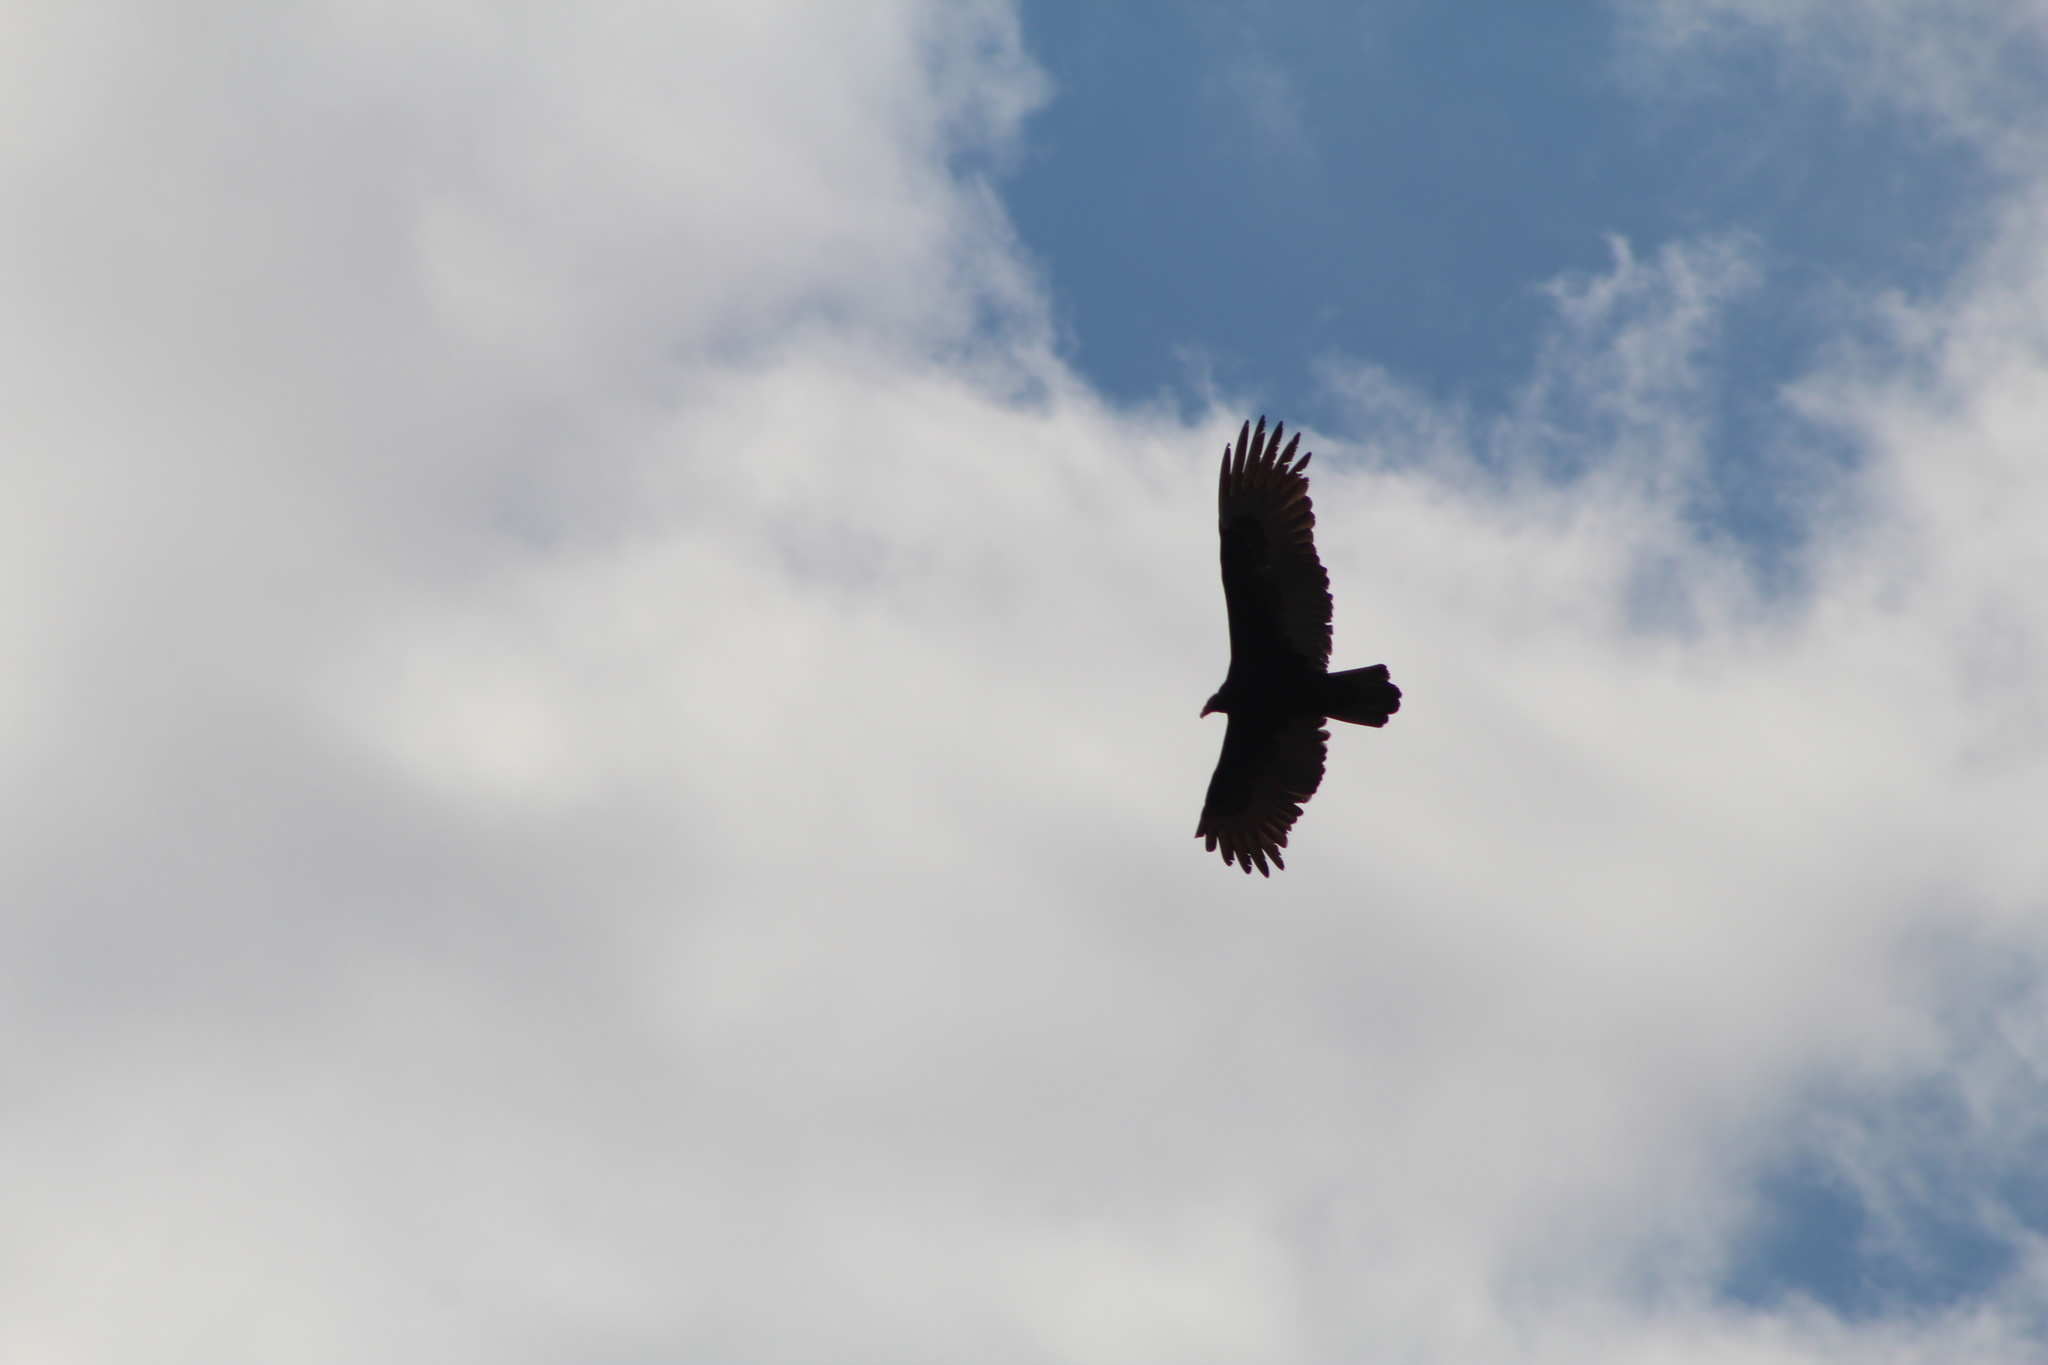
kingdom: Animalia
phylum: Chordata
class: Aves
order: Accipitriformes
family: Cathartidae
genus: Cathartes
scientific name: Cathartes aura
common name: Turkey vulture
